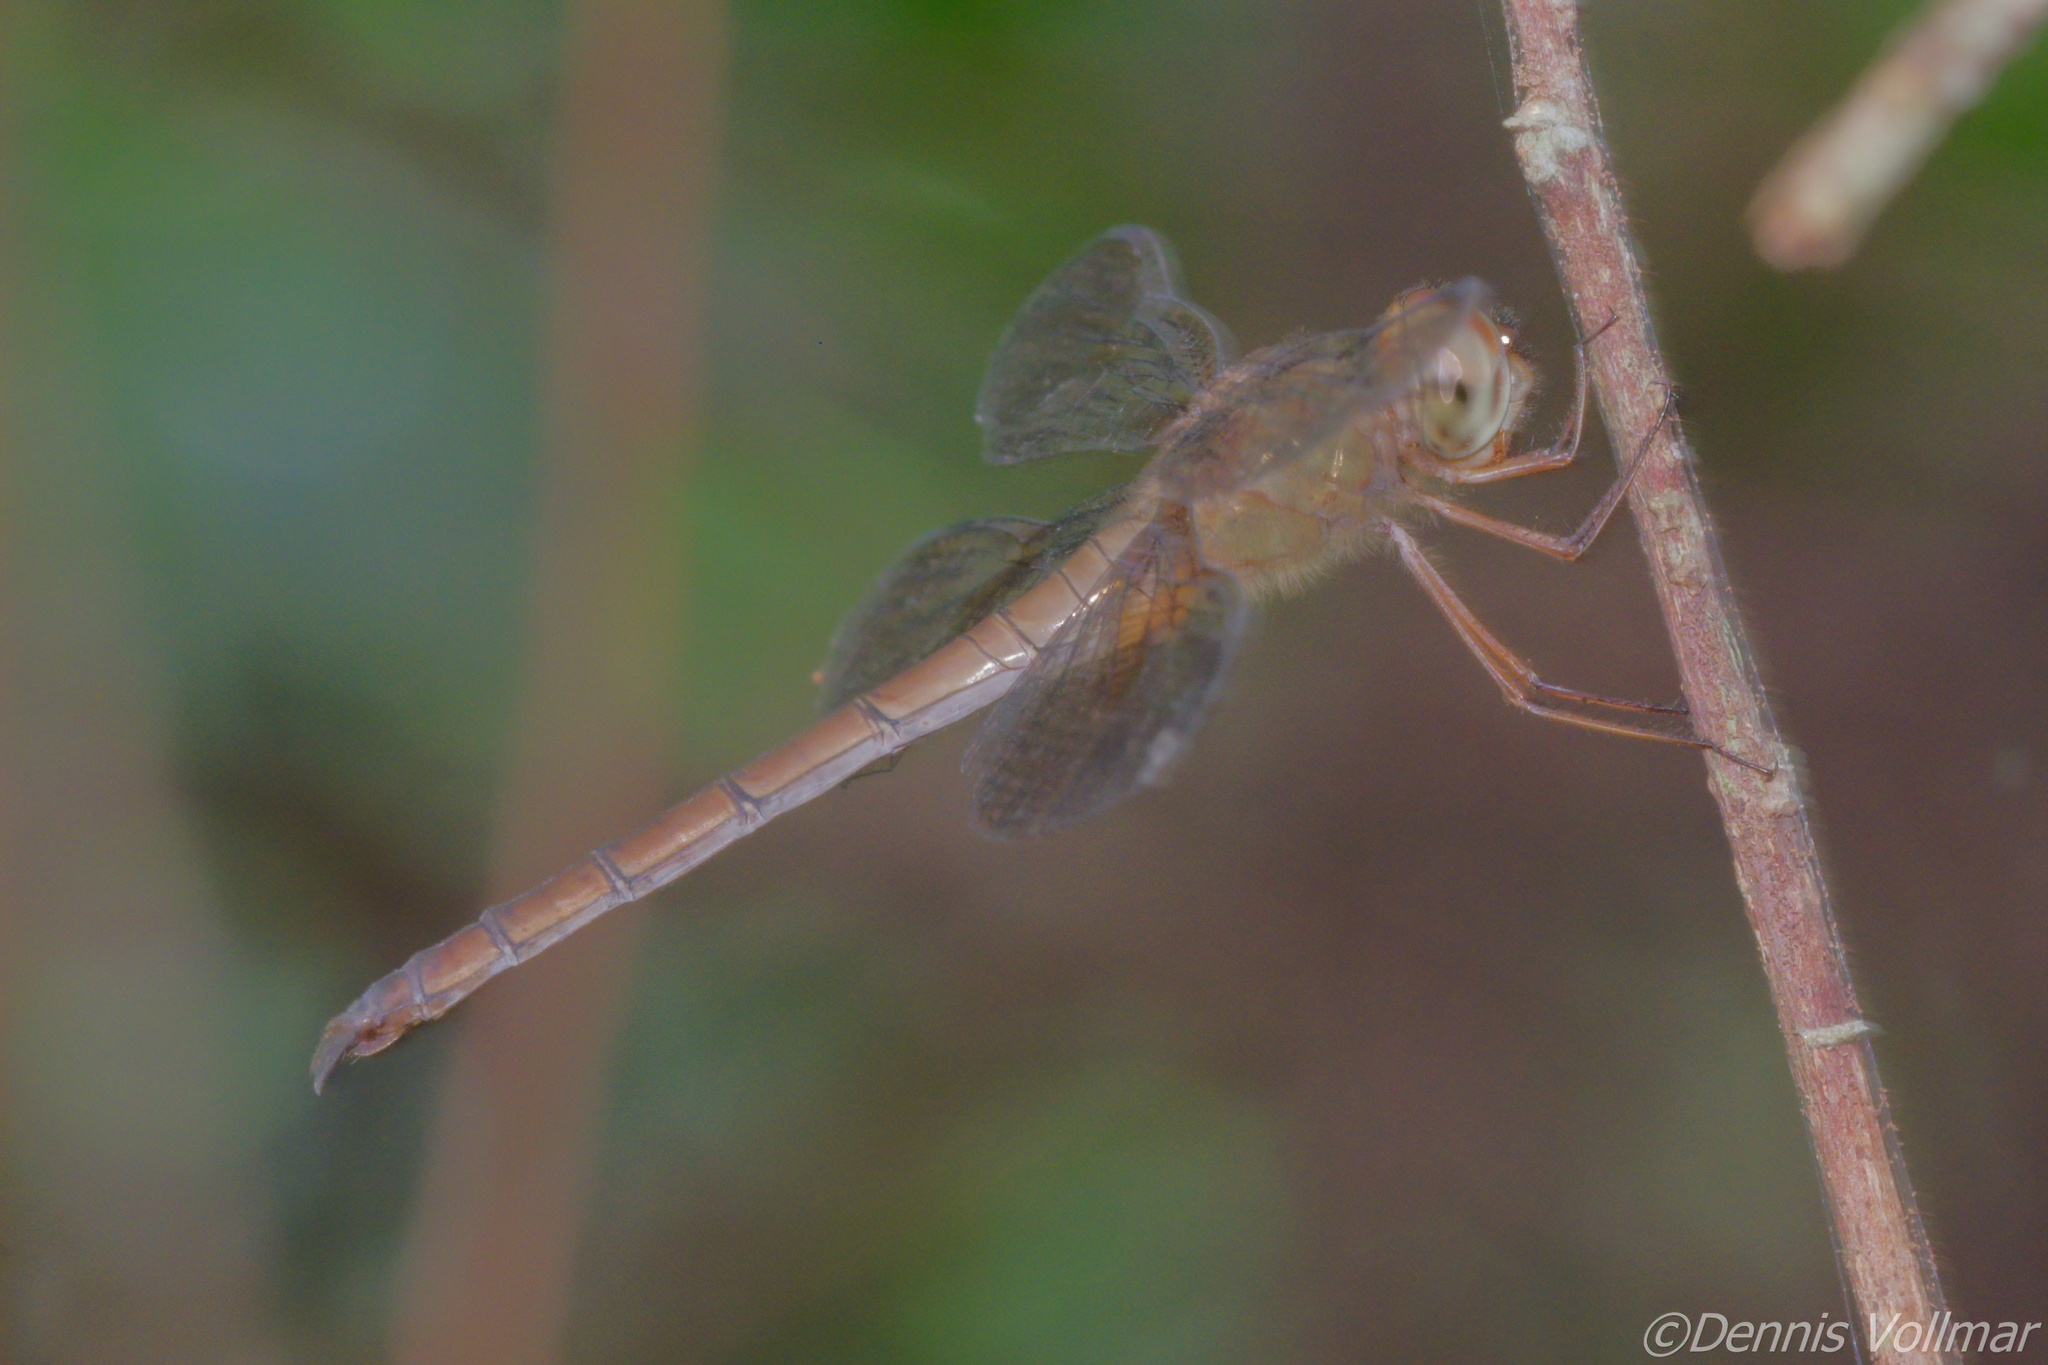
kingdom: Animalia
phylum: Arthropoda
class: Insecta
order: Odonata
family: Libellulidae
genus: Tholymis
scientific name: Tholymis citrina
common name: Evening skimmer
